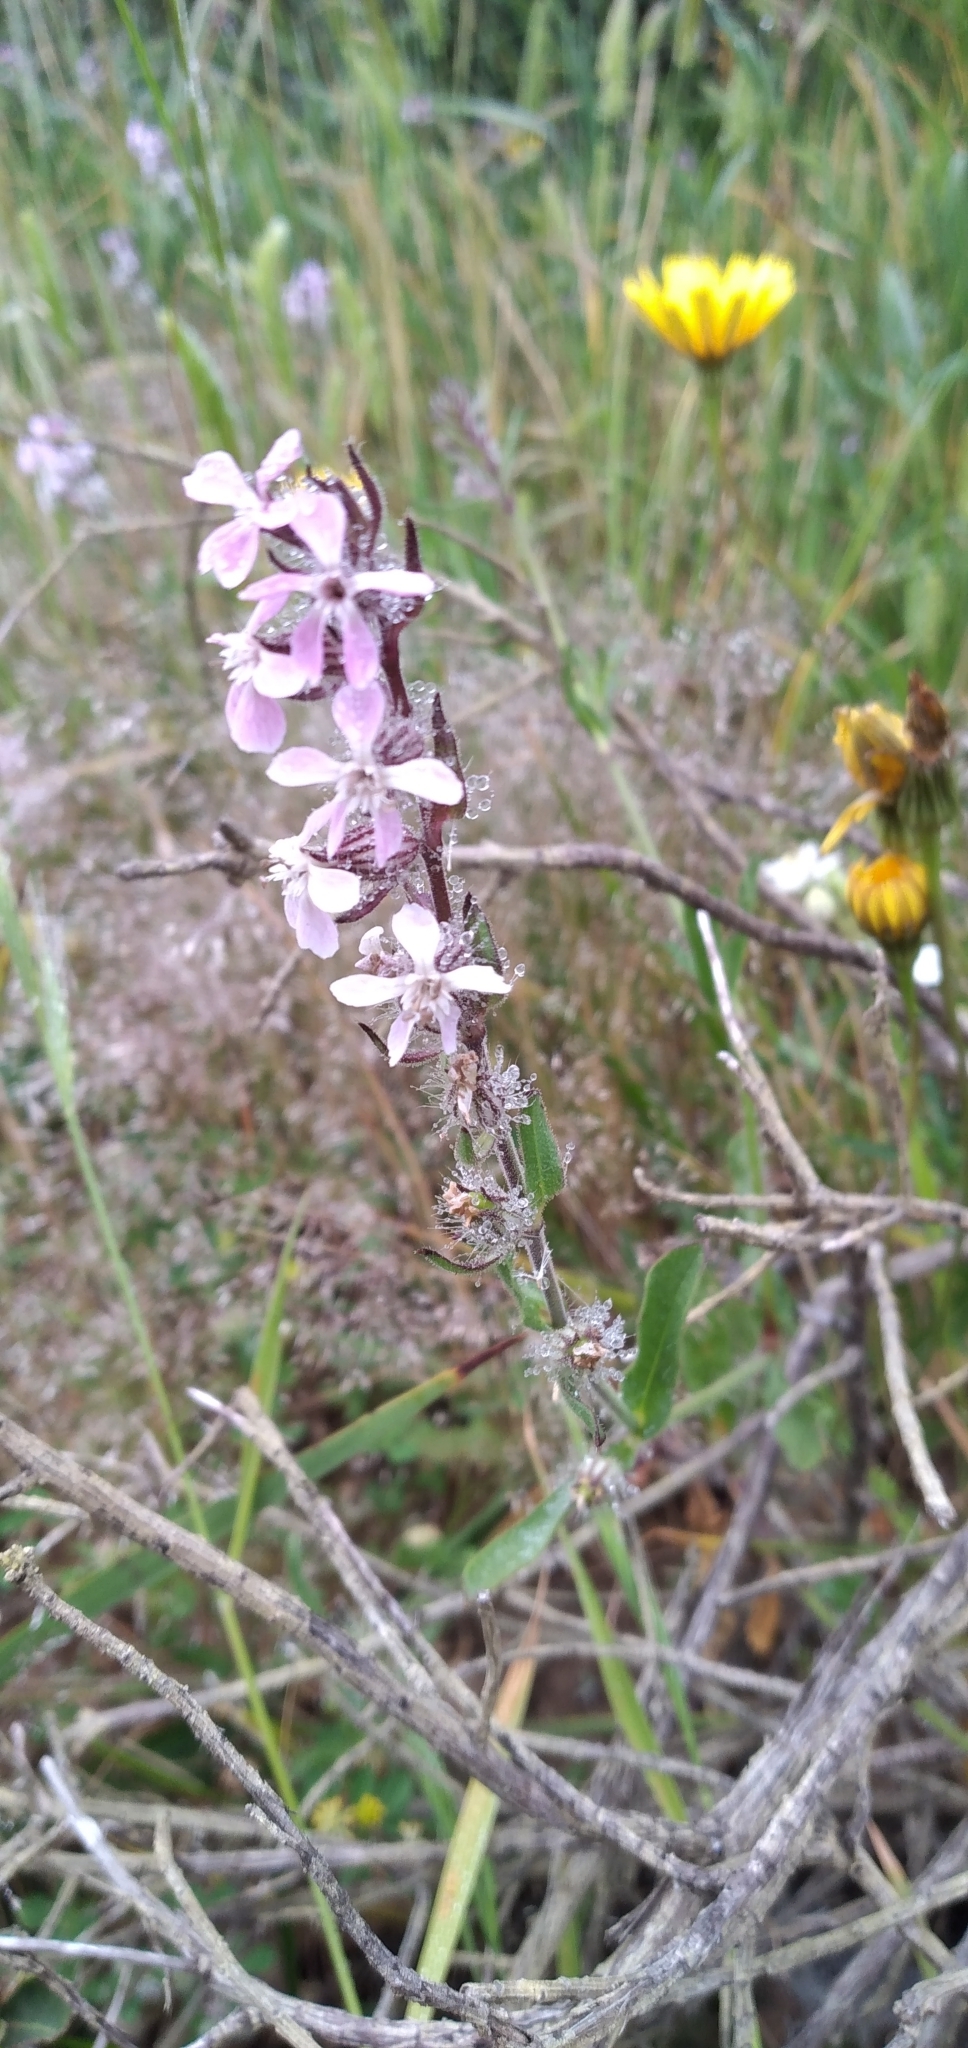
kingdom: Plantae
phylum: Tracheophyta
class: Magnoliopsida
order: Caryophyllales
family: Caryophyllaceae
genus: Silene
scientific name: Silene gallica
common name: Small-flowered catchfly
